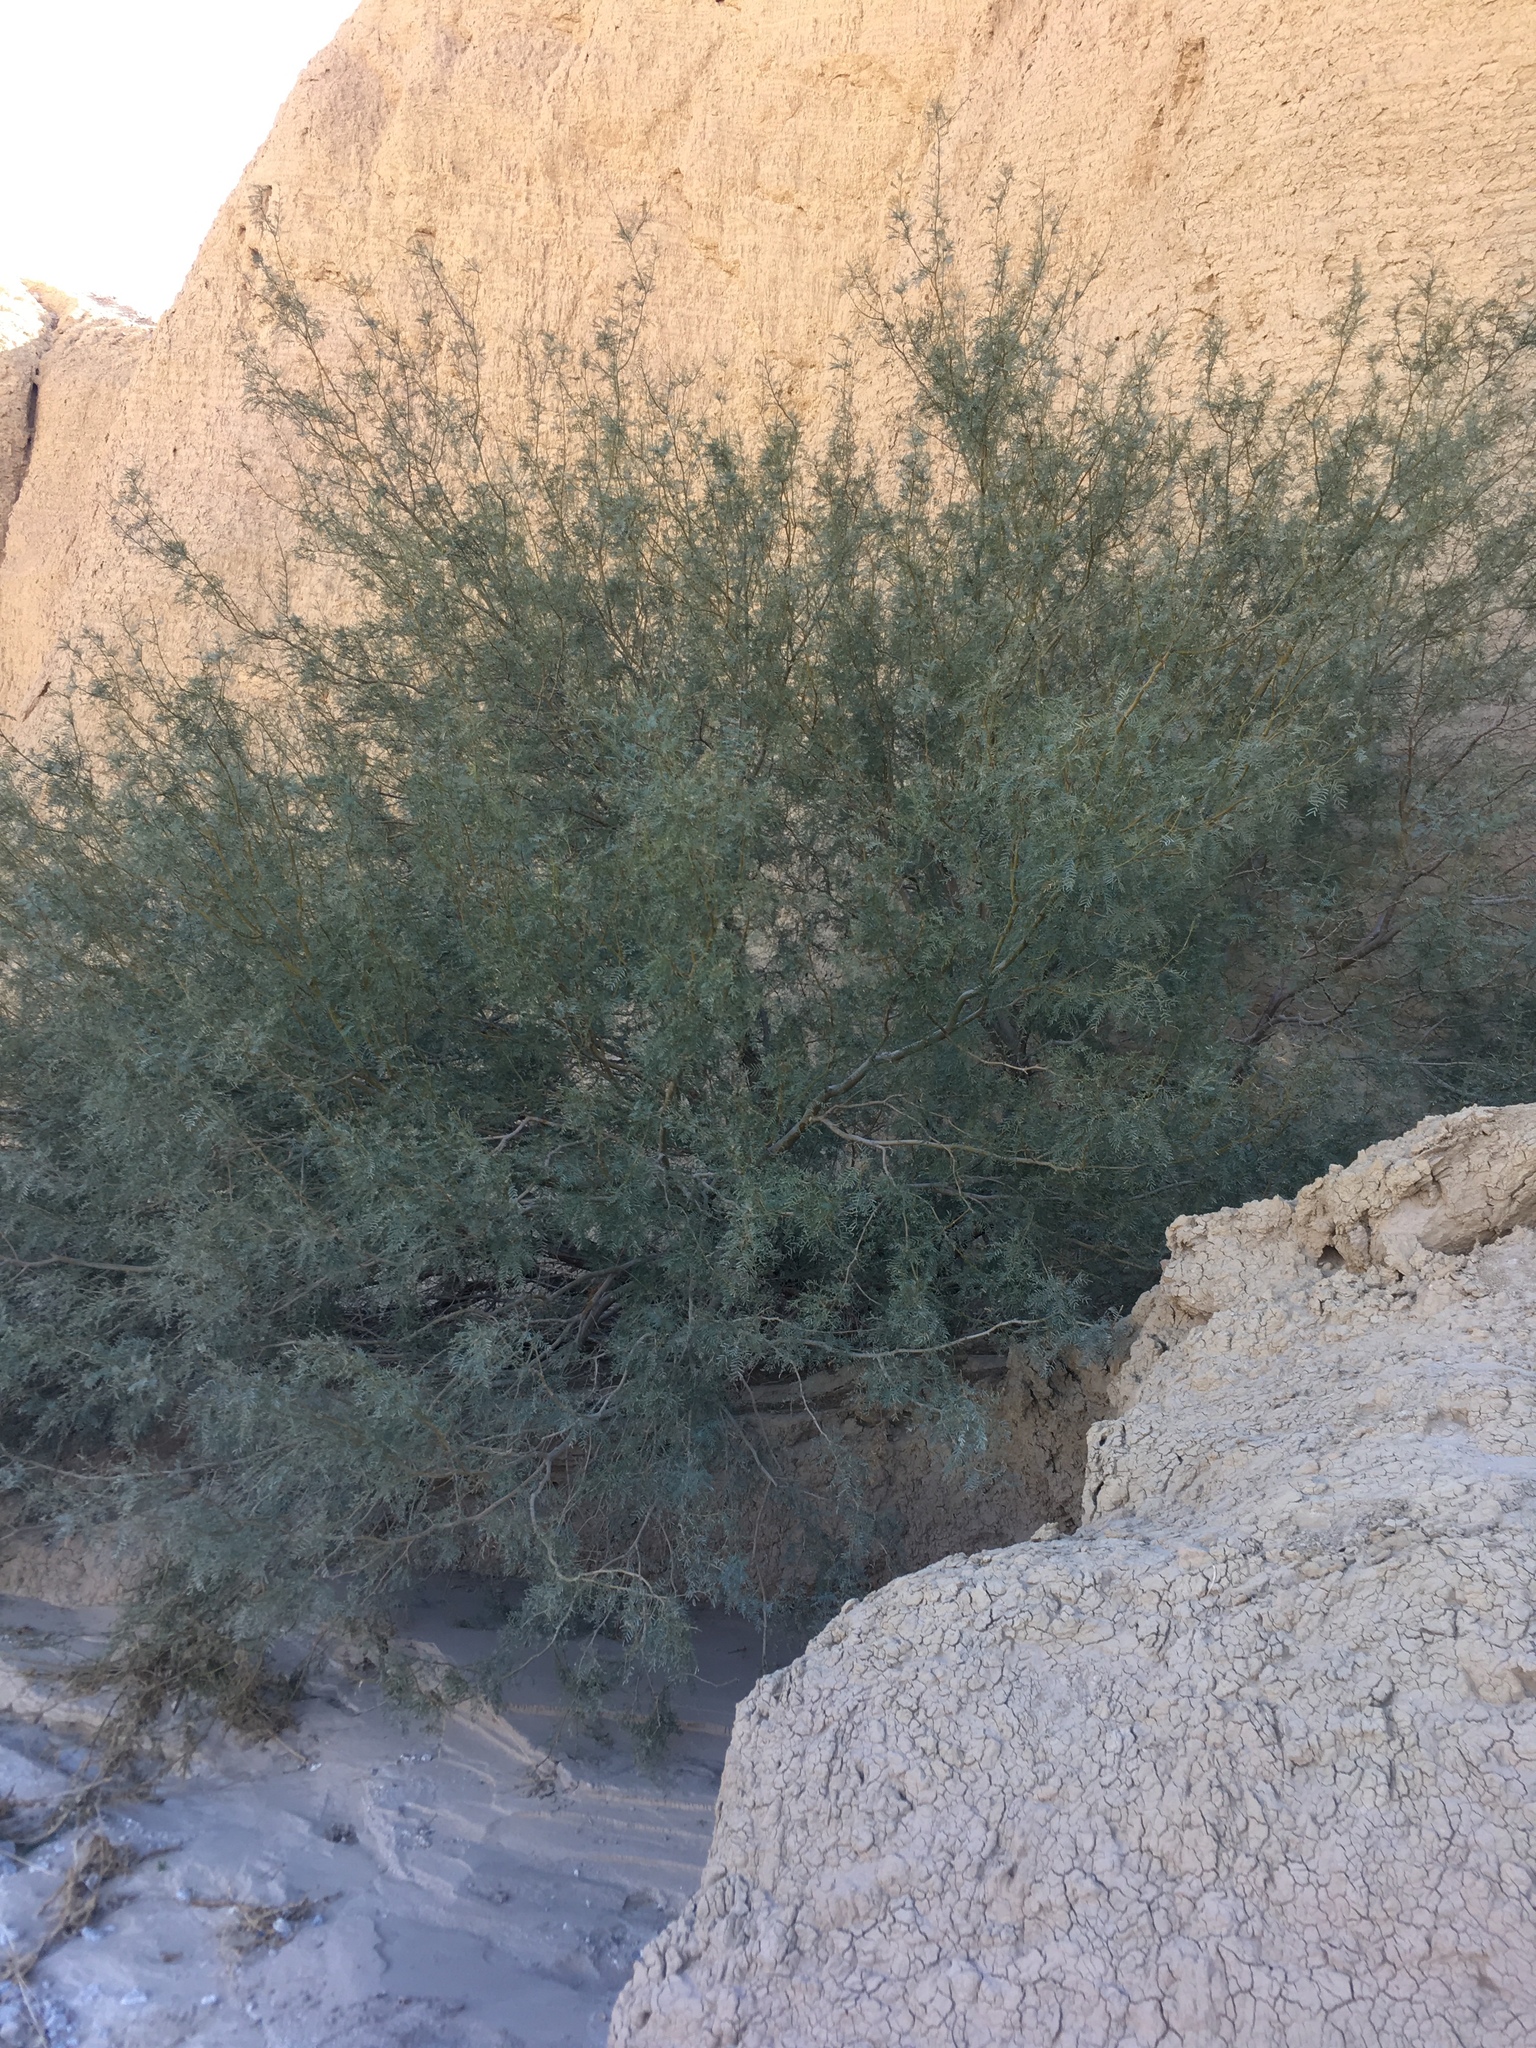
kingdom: Plantae
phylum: Tracheophyta
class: Magnoliopsida
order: Fabales
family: Fabaceae
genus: Prosopis
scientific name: Prosopis pubescens
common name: Screw-bean
